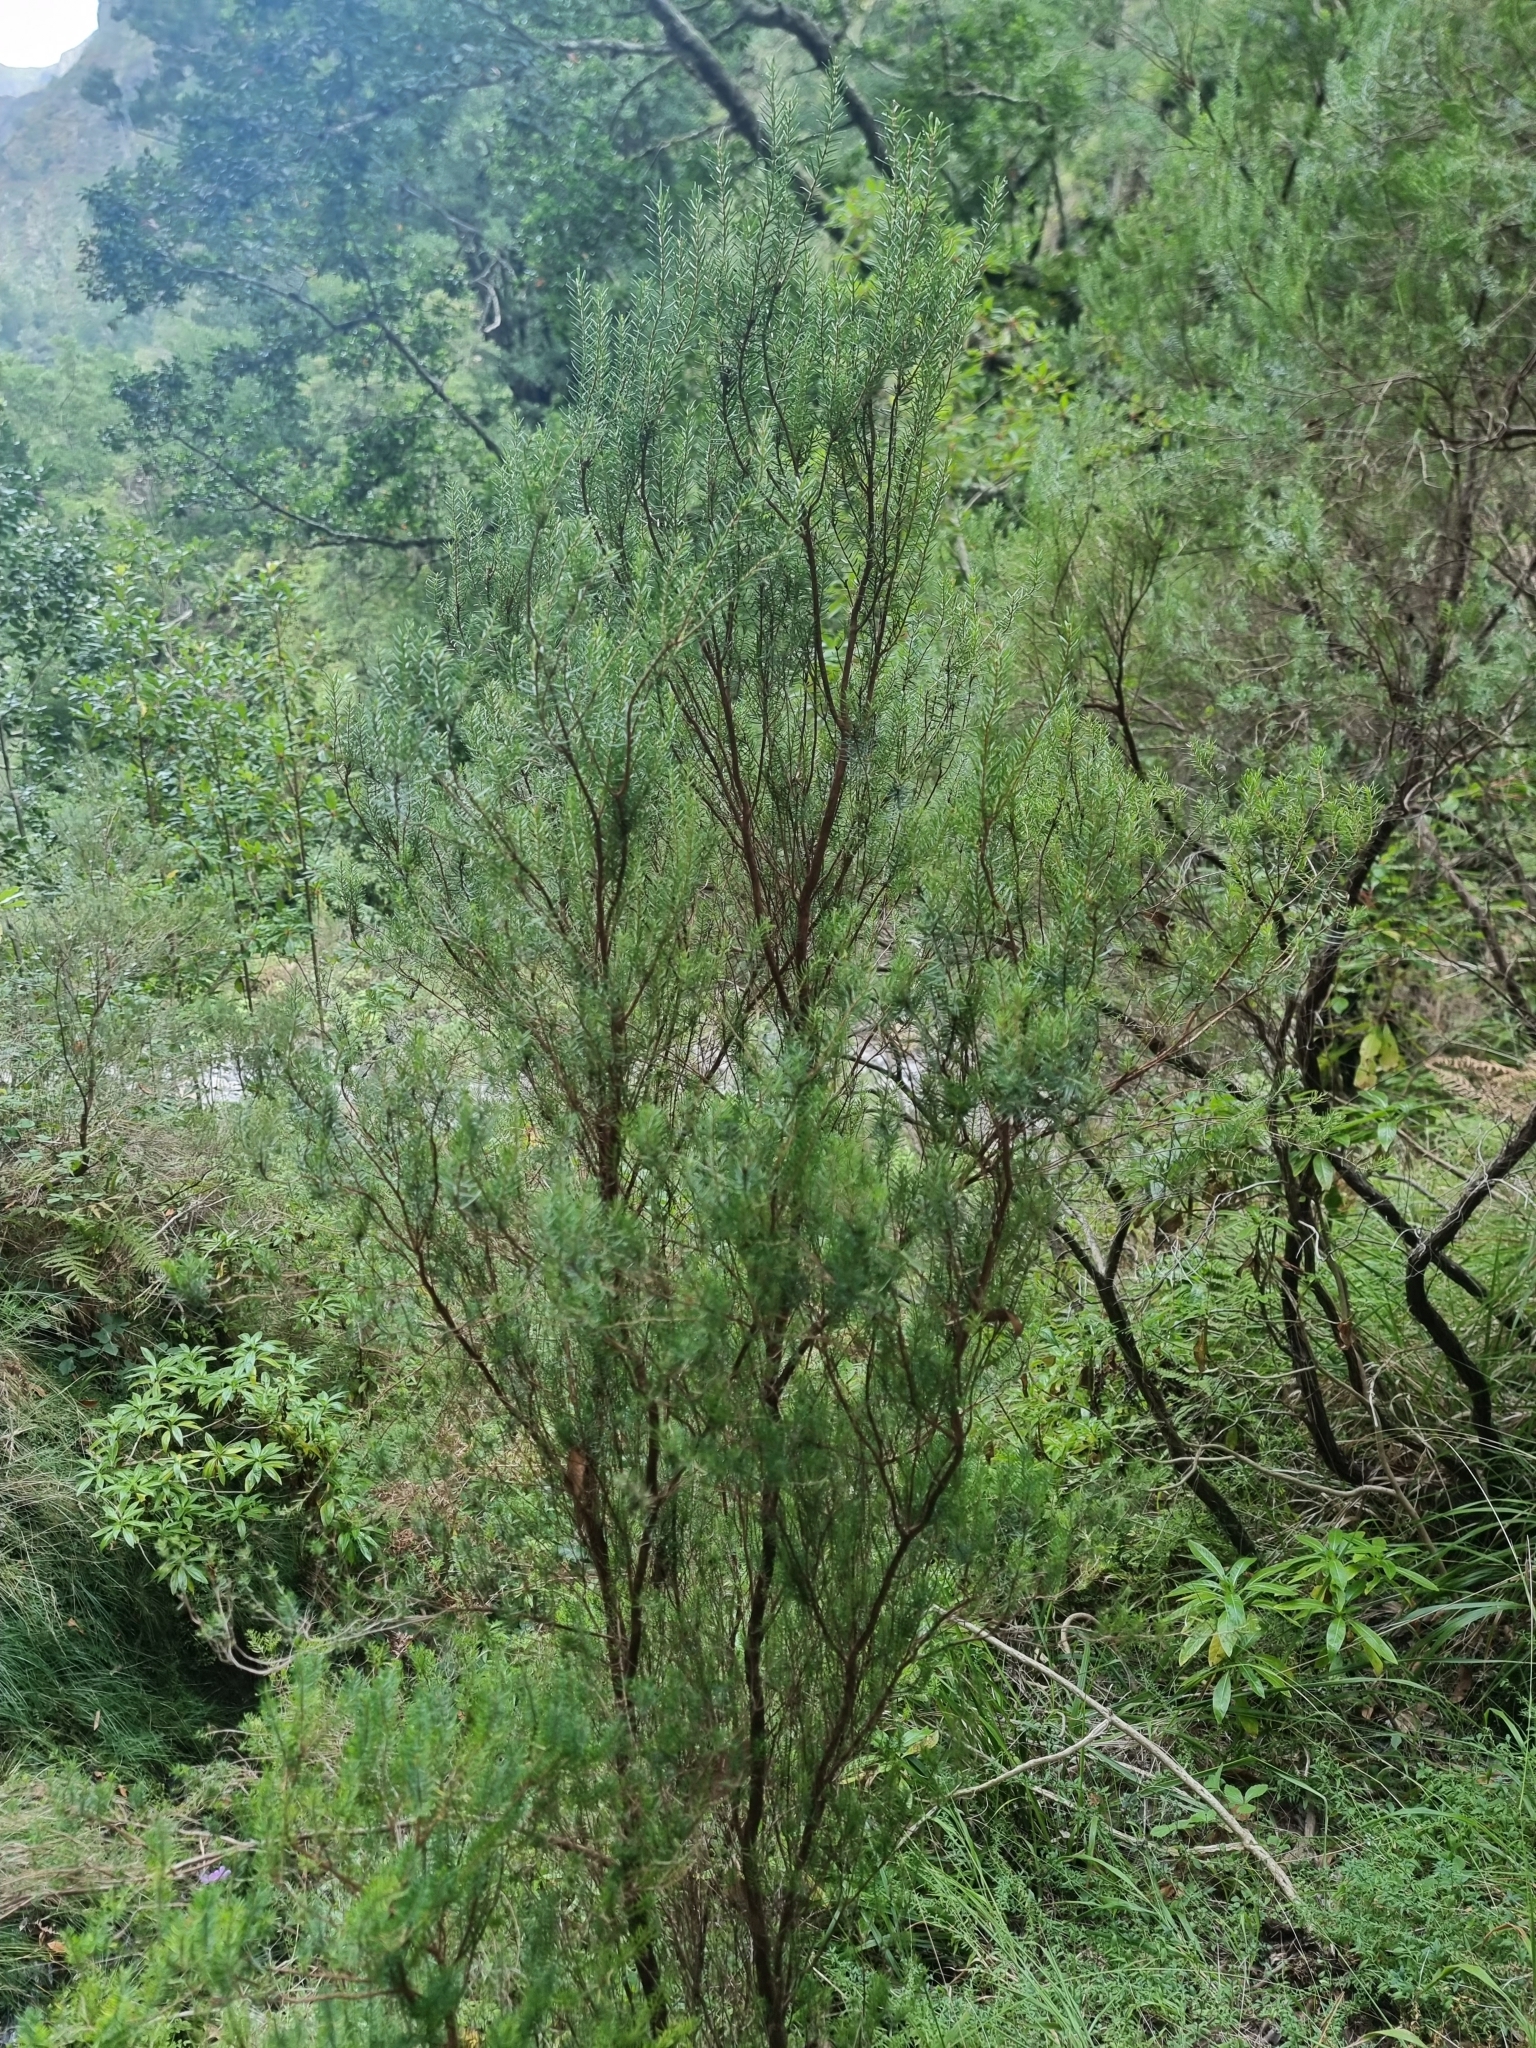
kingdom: Plantae
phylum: Tracheophyta
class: Magnoliopsida
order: Ericales
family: Ericaceae
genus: Erica
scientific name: Erica platycodon
